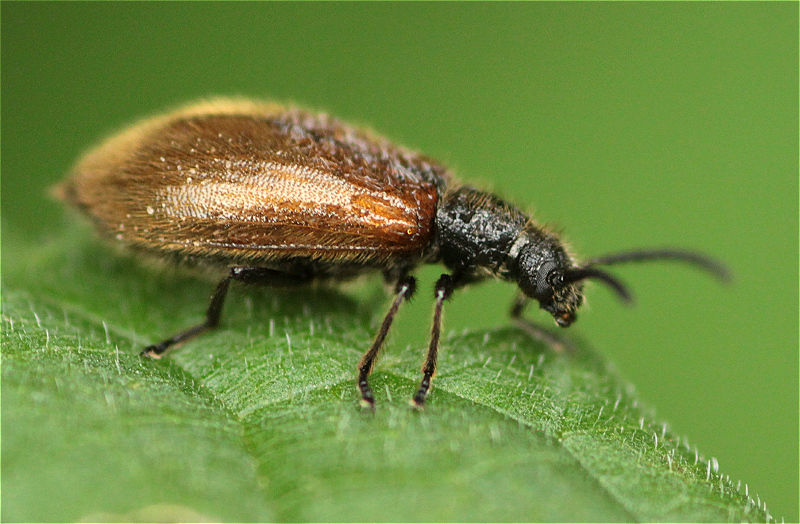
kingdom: Animalia
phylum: Arthropoda
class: Insecta
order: Coleoptera
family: Tenebrionidae
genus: Lagria
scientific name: Lagria hirta
